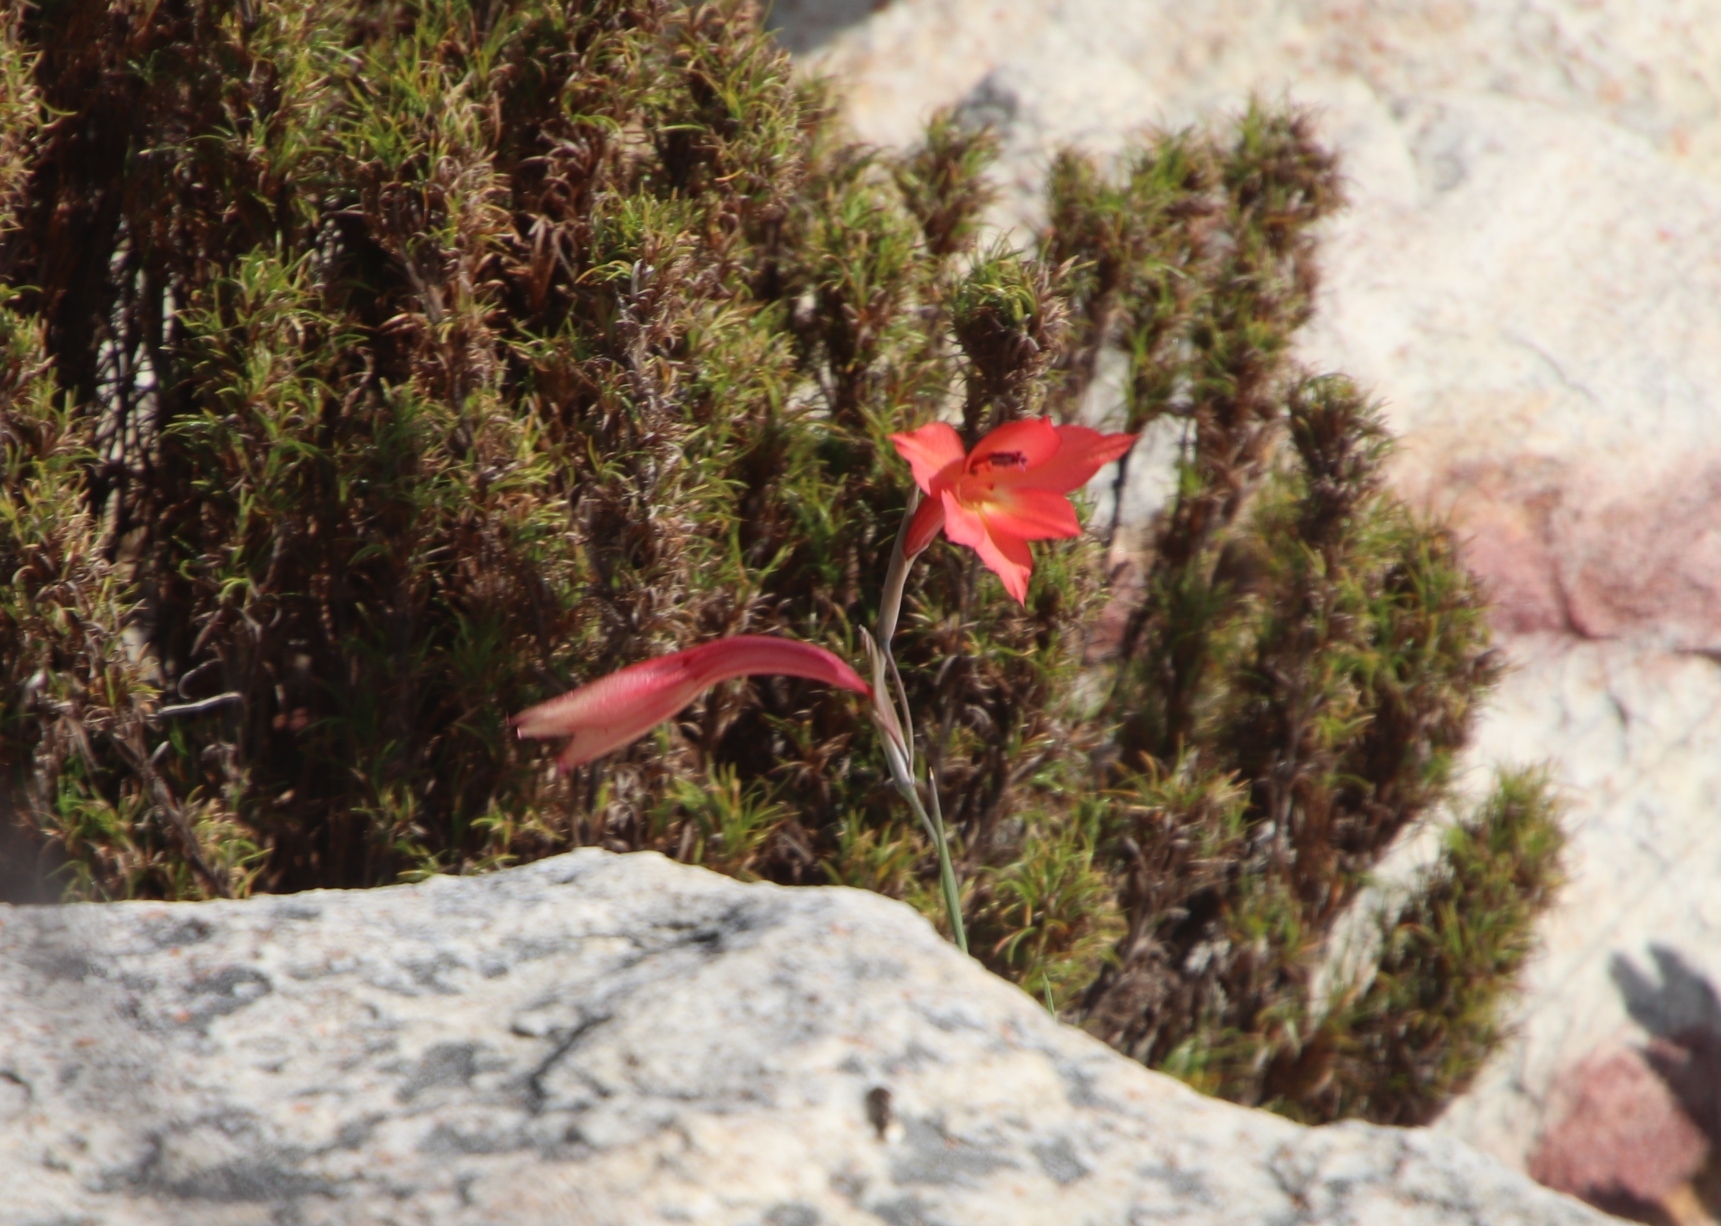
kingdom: Plantae
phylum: Tracheophyta
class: Liliopsida
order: Asparagales
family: Iridaceae
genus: Gladiolus
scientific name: Gladiolus priorii
